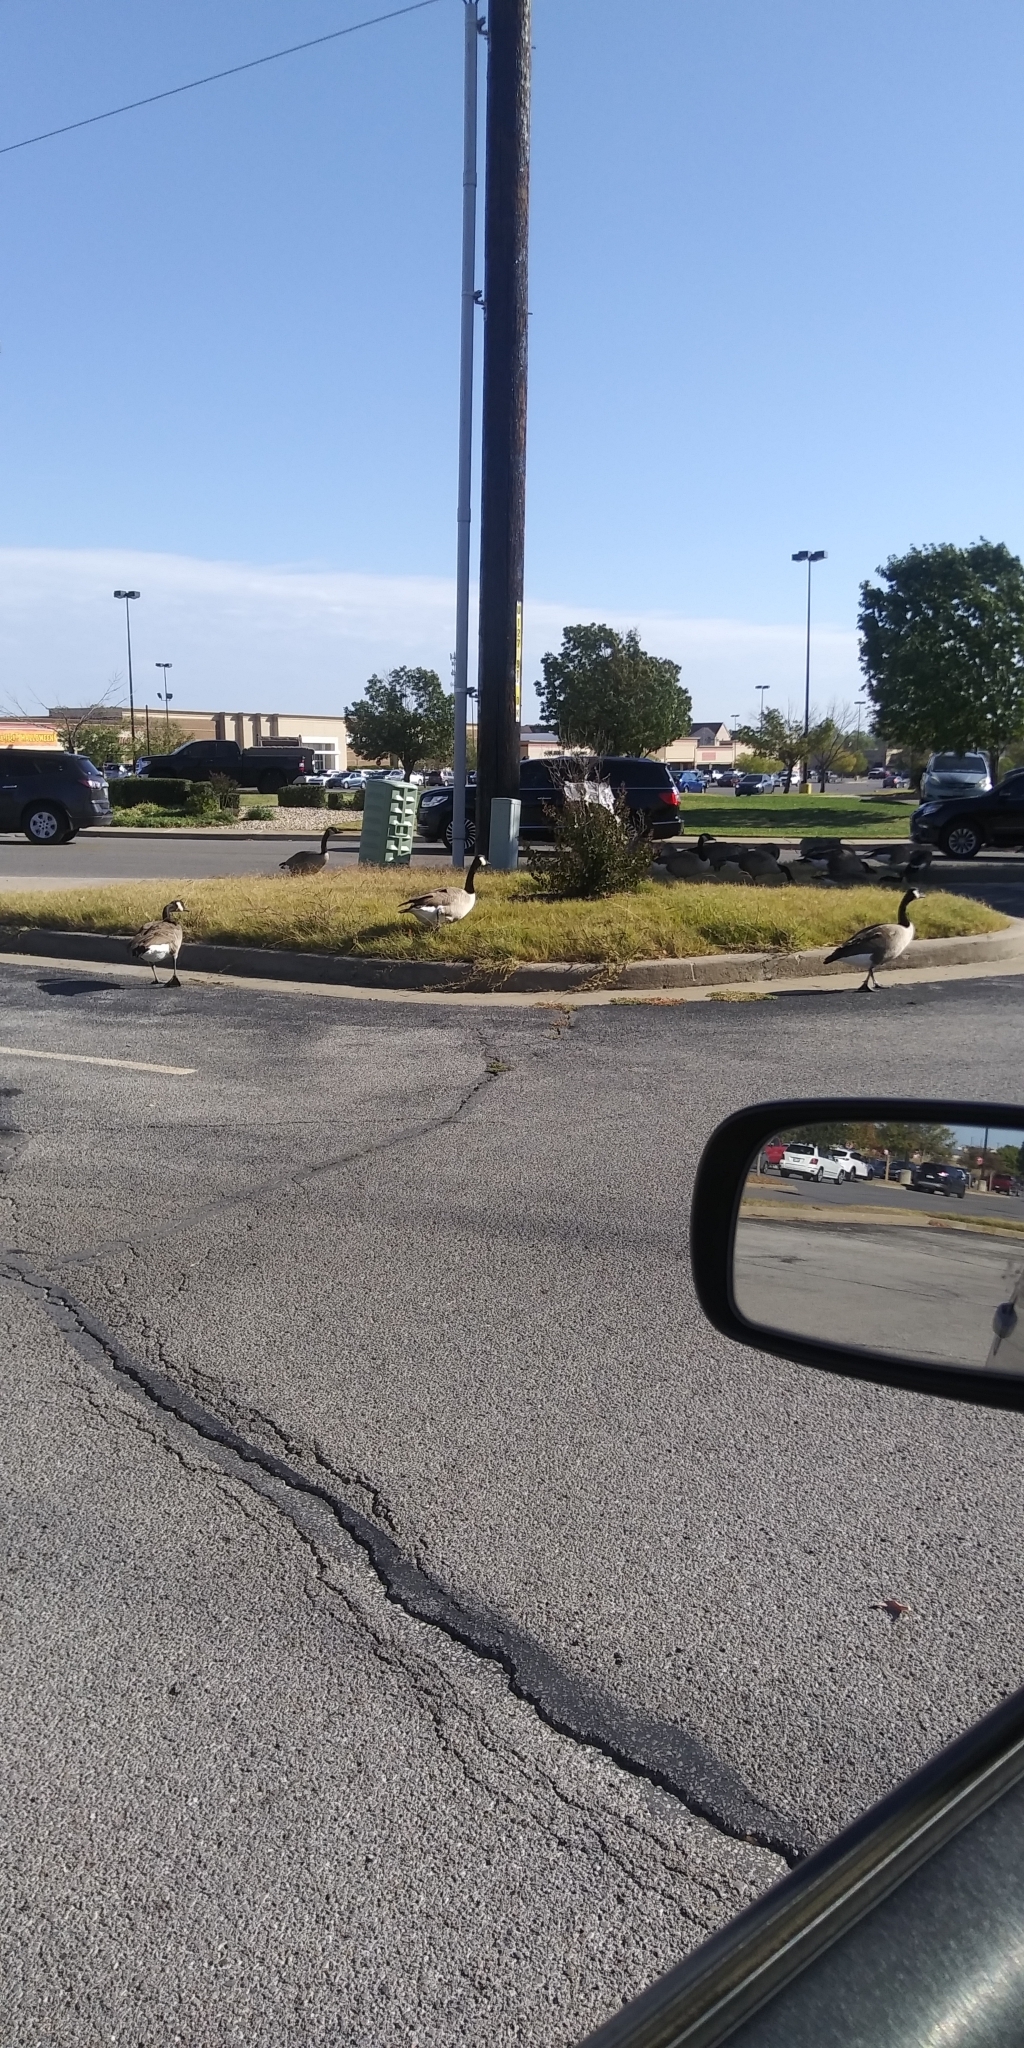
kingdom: Animalia
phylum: Chordata
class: Aves
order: Anseriformes
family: Anatidae
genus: Branta
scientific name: Branta canadensis
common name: Canada goose
